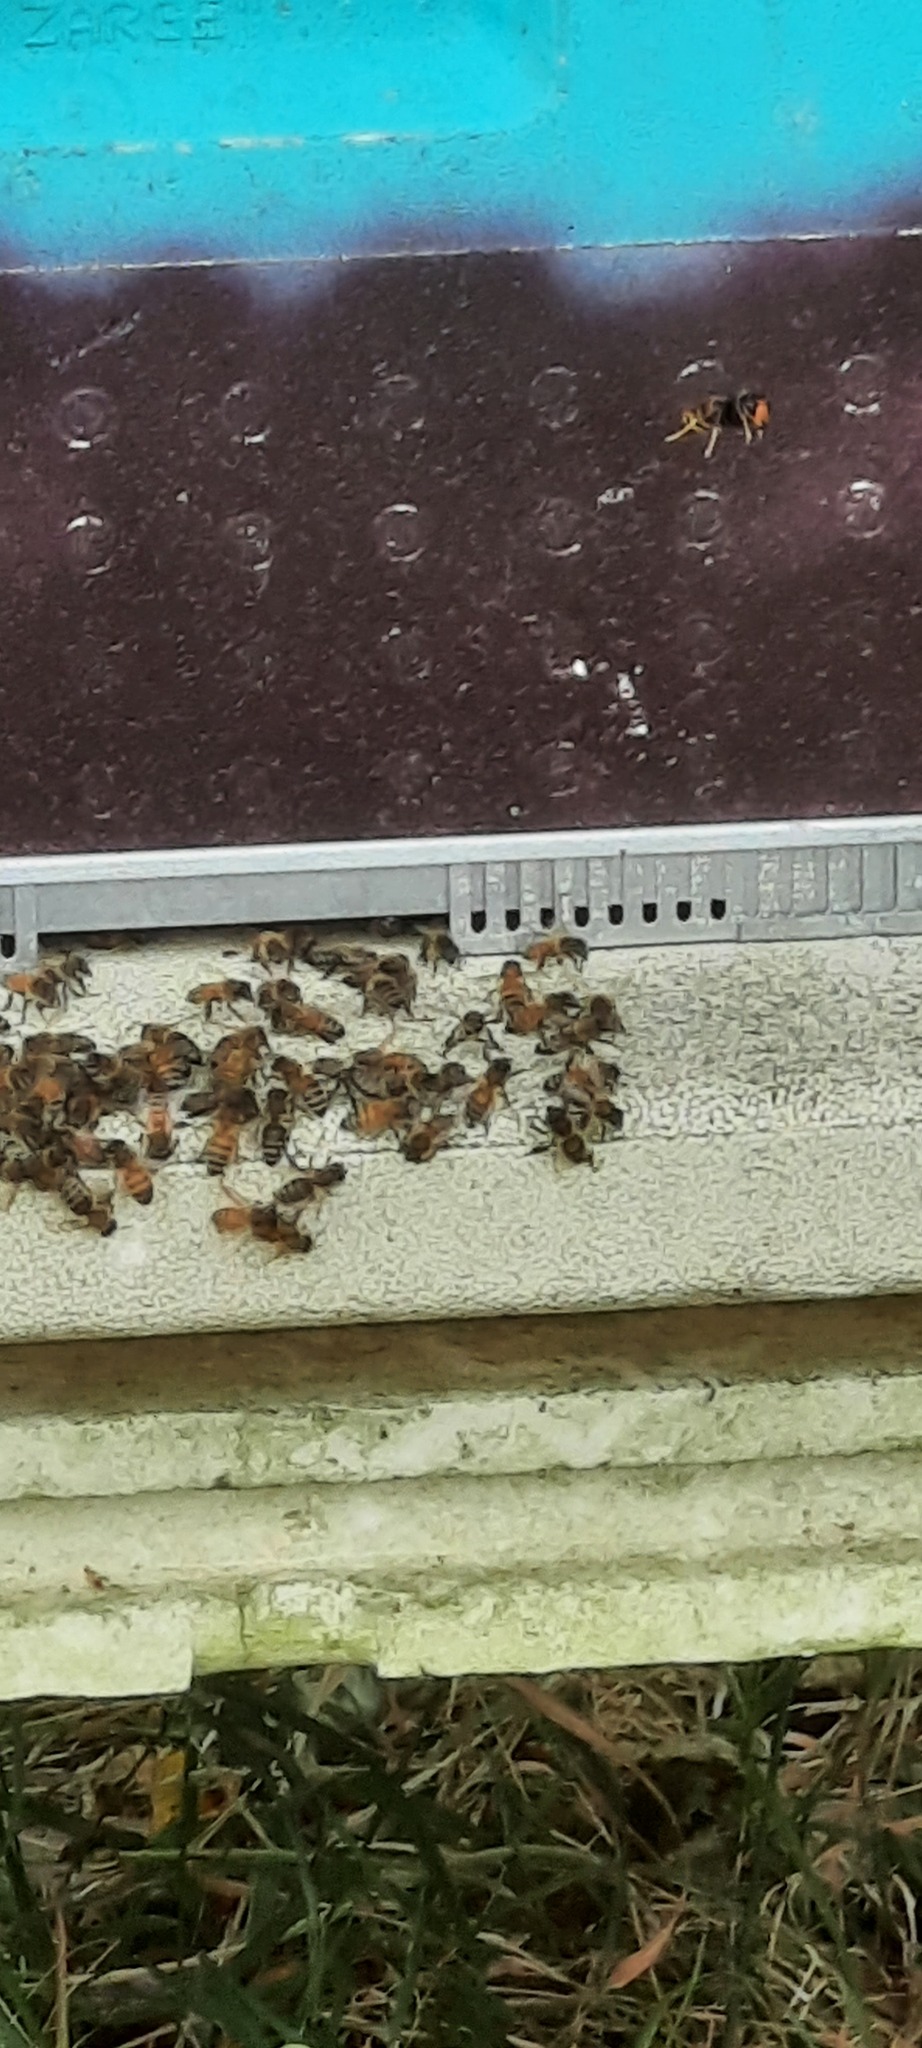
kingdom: Animalia
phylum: Arthropoda
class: Insecta
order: Hymenoptera
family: Vespidae
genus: Vespa
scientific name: Vespa velutina
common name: Asian hornet
